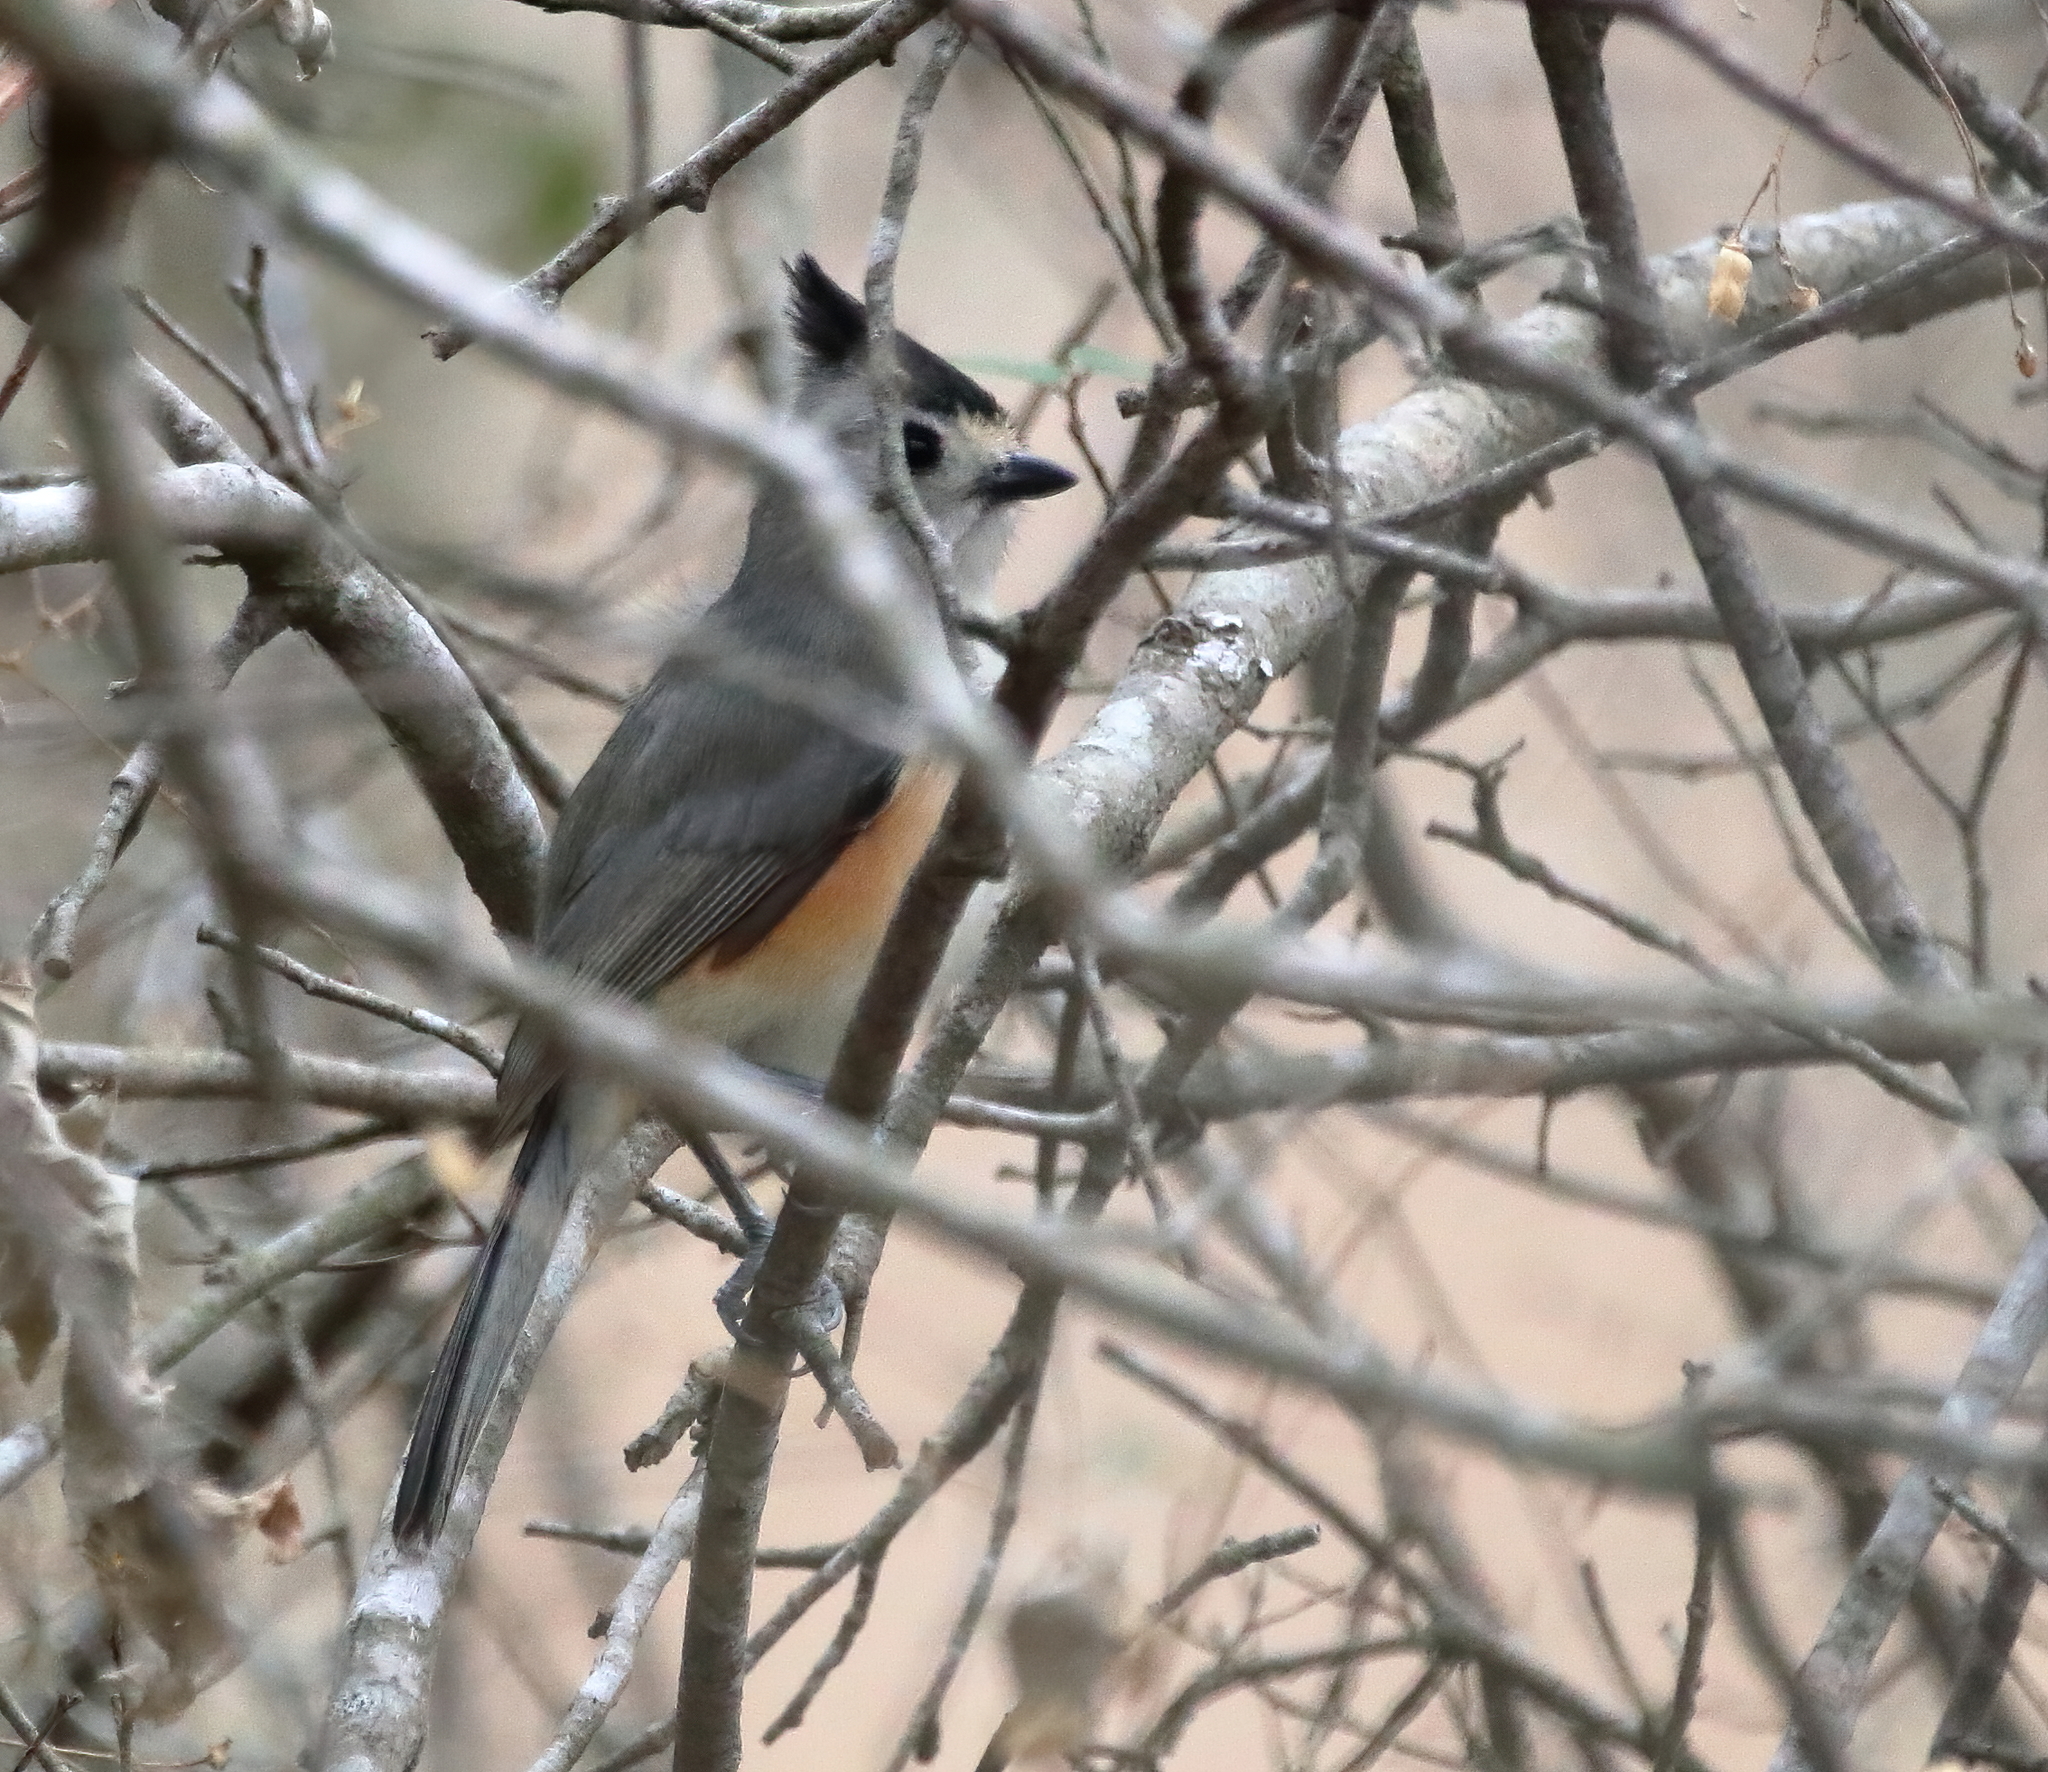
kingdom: Animalia
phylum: Chordata
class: Aves
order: Passeriformes
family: Paridae
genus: Baeolophus
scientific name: Baeolophus atricristatus
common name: Black-crested titmouse
